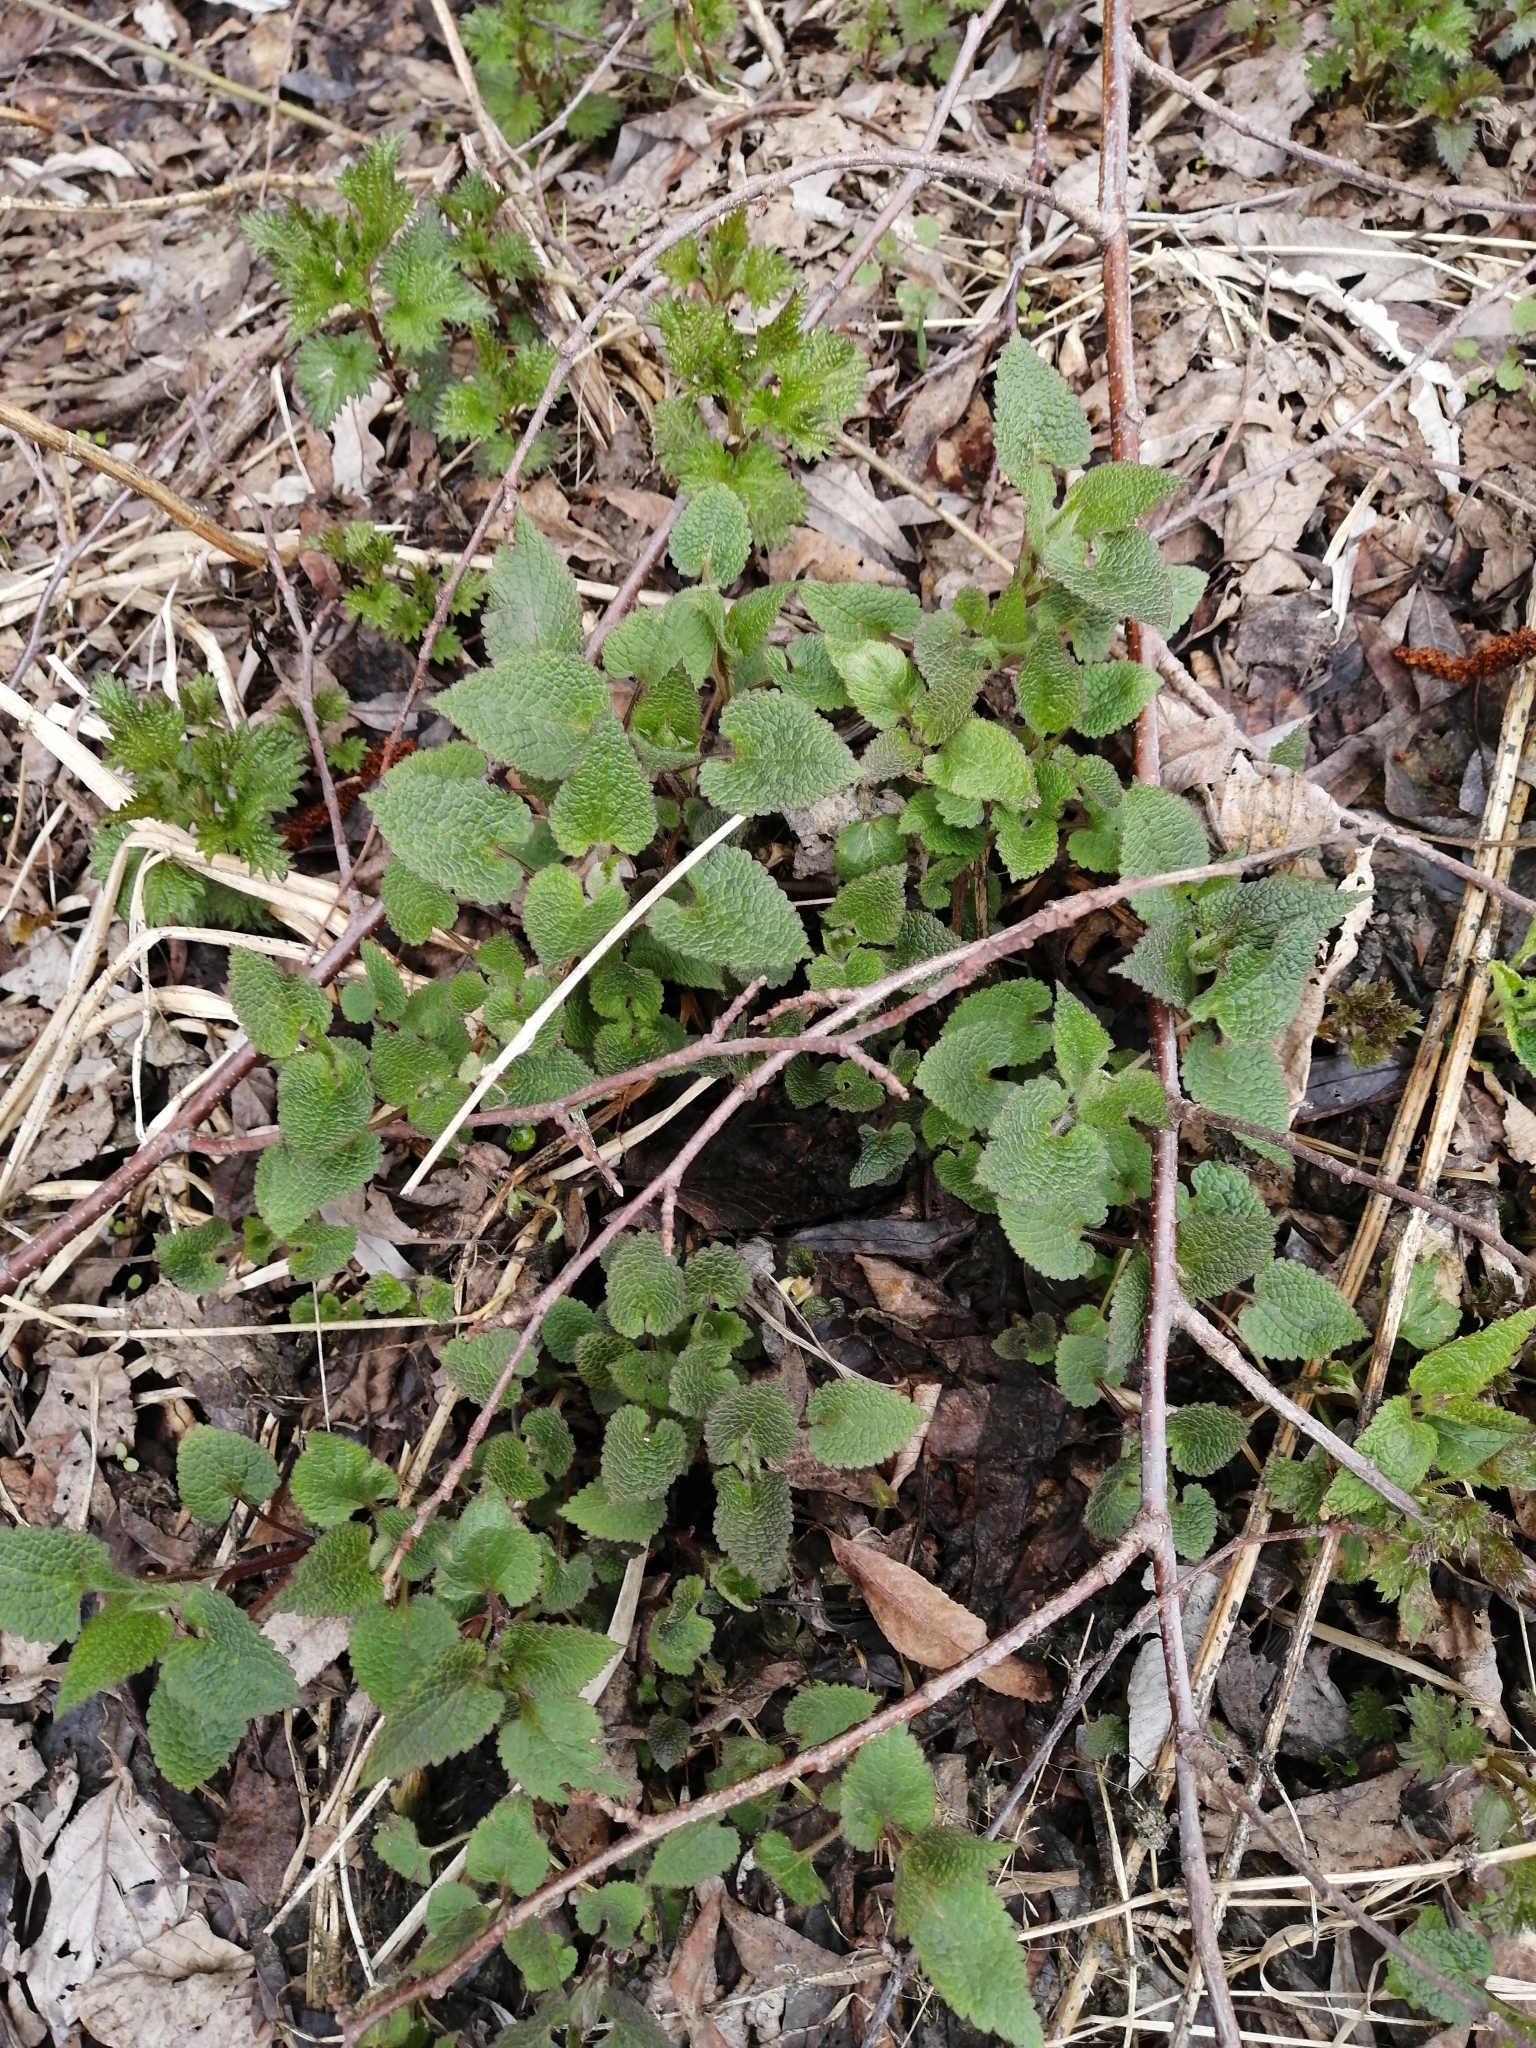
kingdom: Plantae
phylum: Tracheophyta
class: Magnoliopsida
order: Lamiales
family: Lamiaceae
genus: Lamium
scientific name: Lamium album
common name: White dead-nettle
